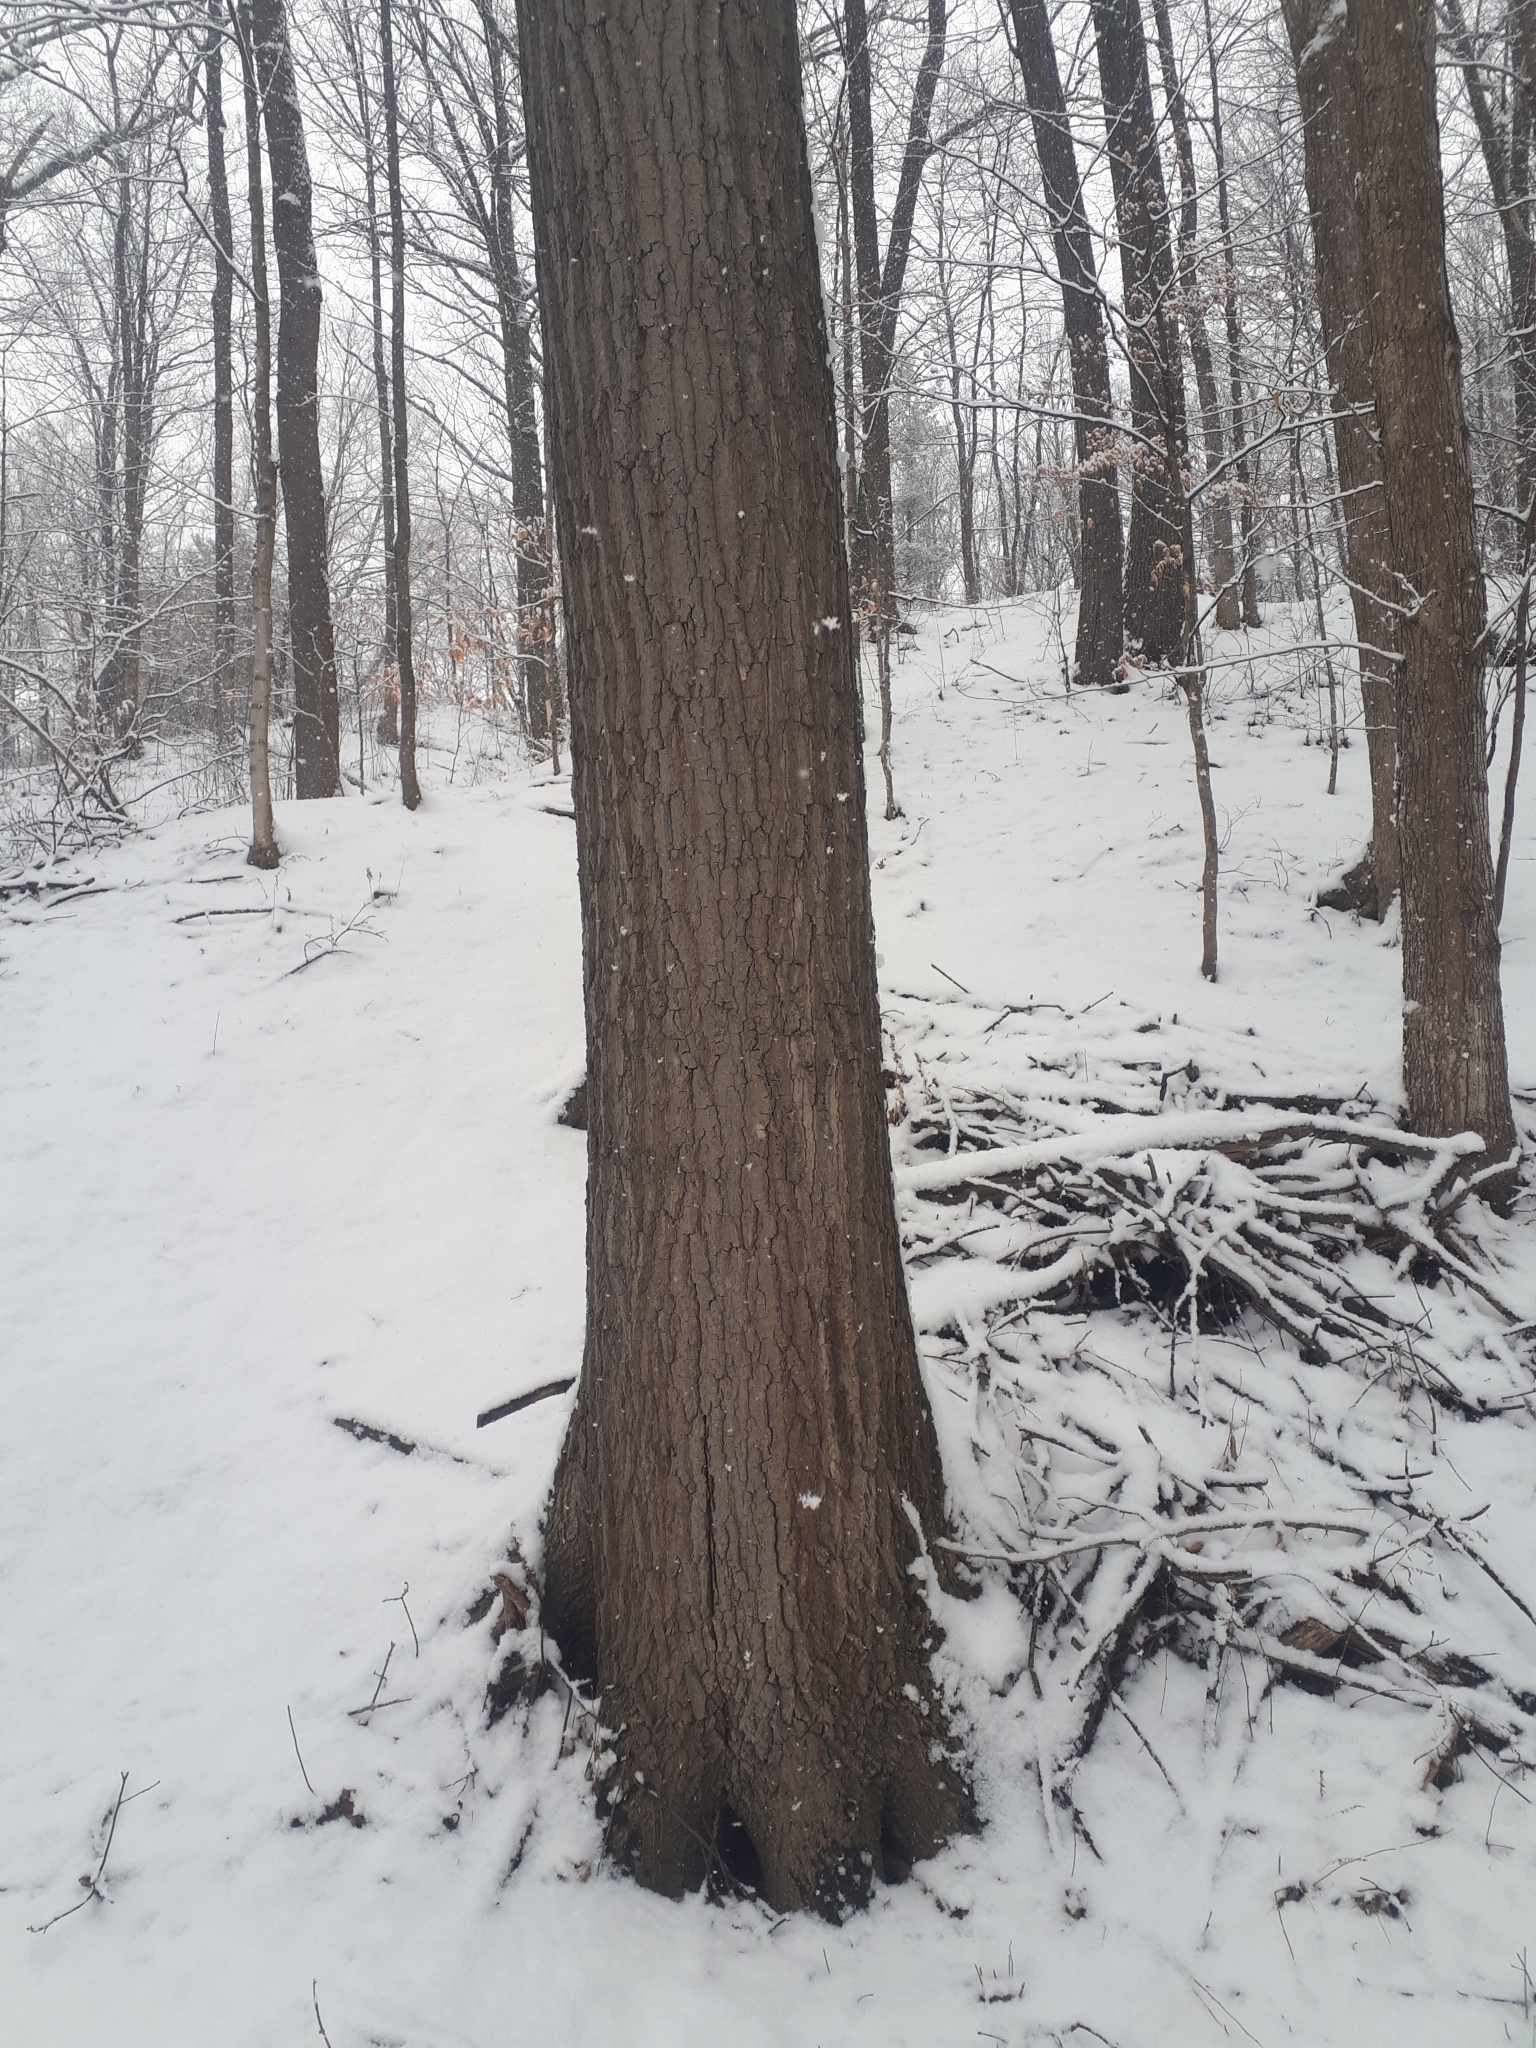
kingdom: Plantae
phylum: Tracheophyta
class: Magnoliopsida
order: Fagales
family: Fagaceae
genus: Quercus
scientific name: Quercus rubra
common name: Red oak
